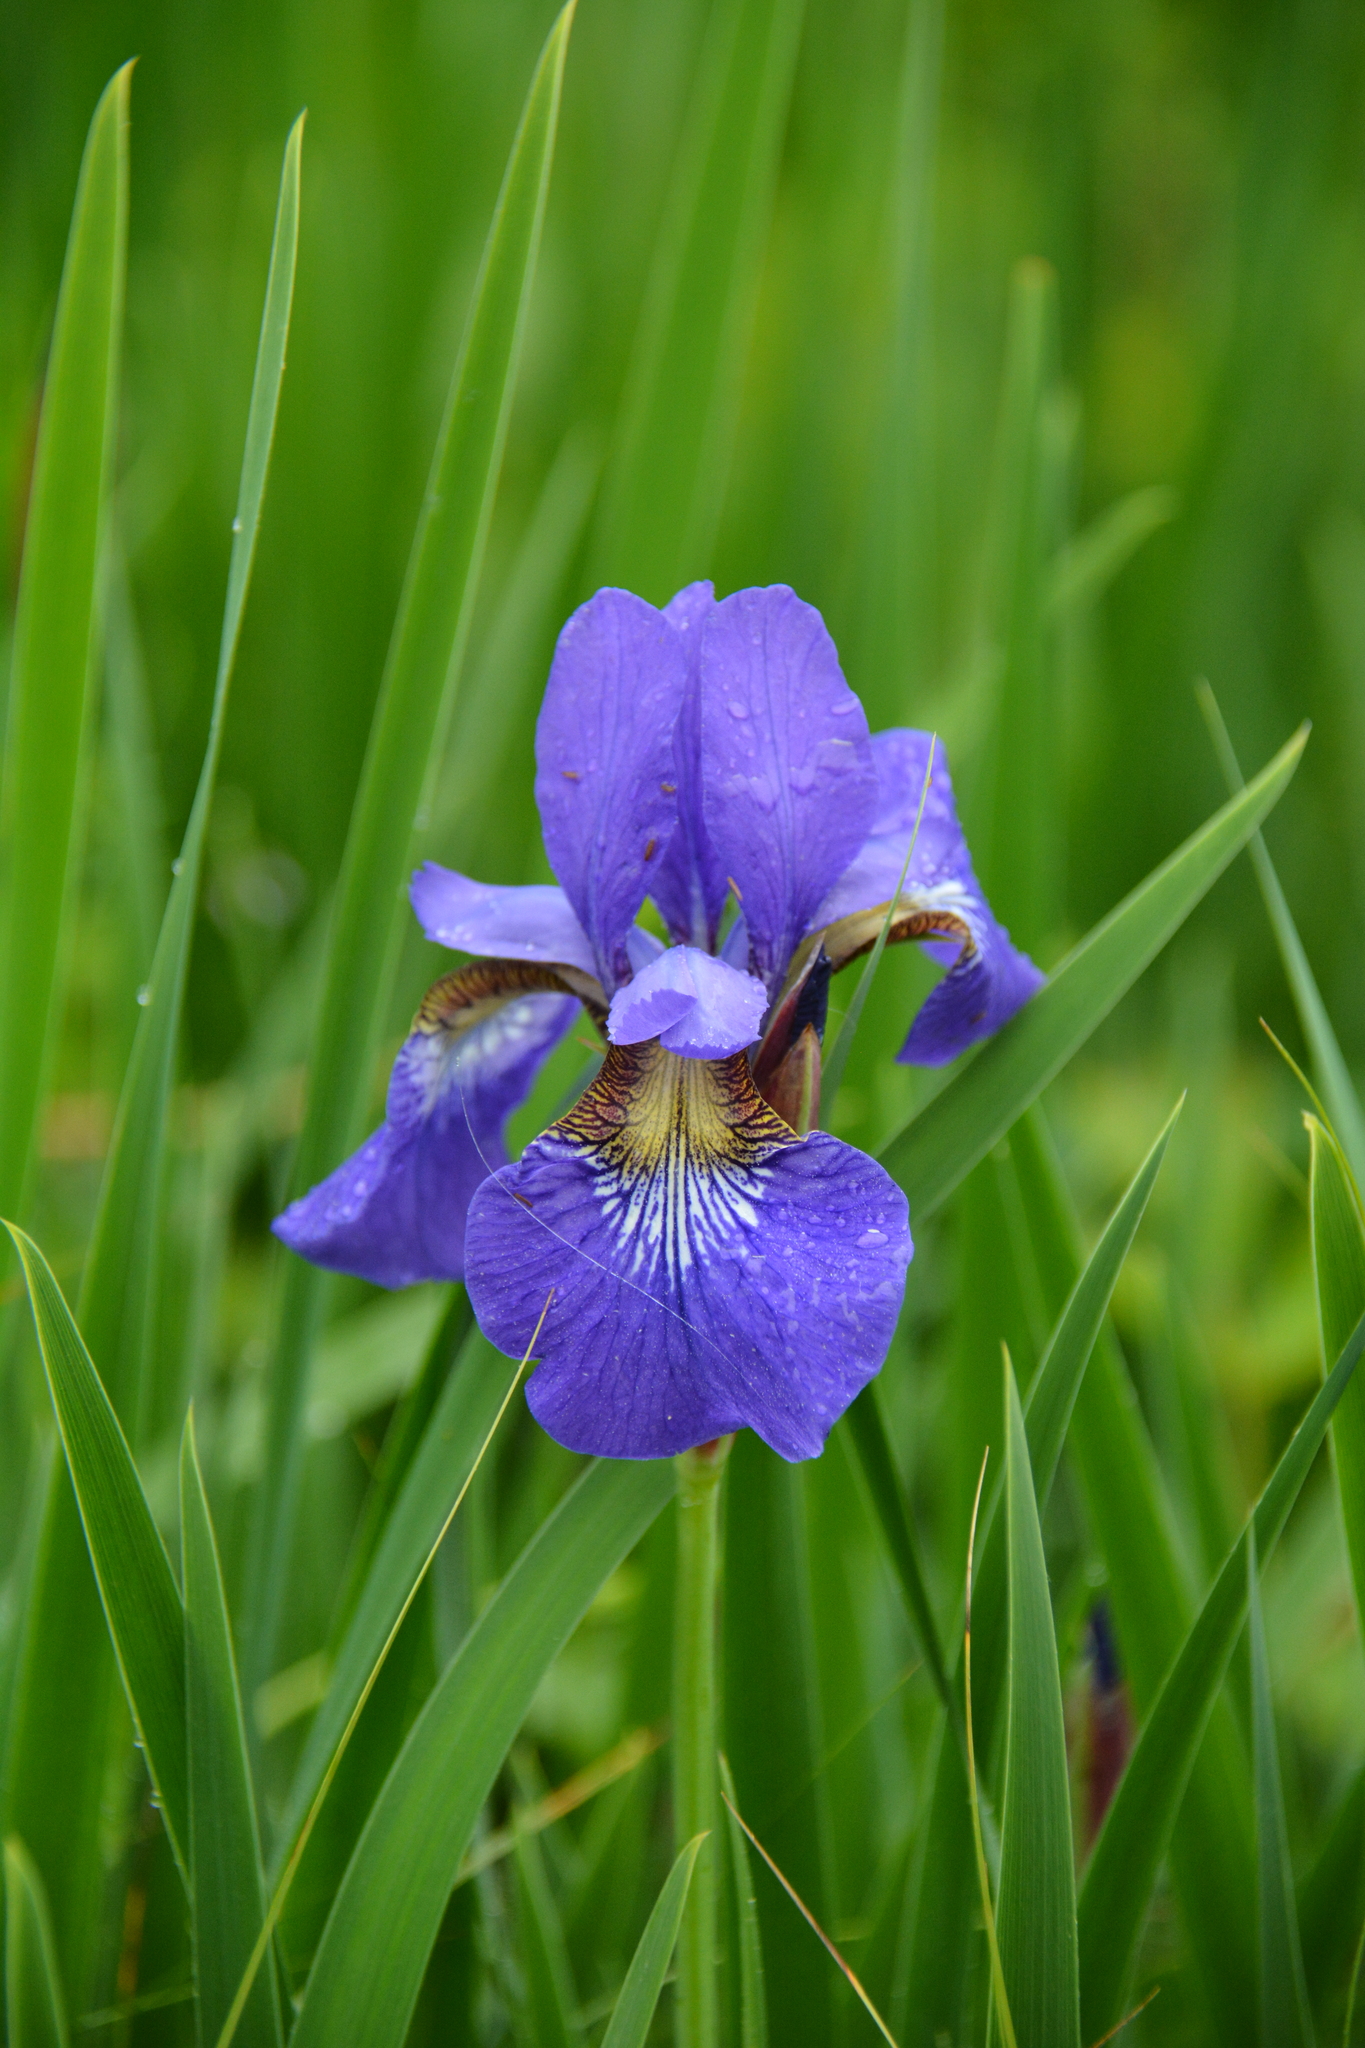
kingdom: Plantae
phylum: Tracheophyta
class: Liliopsida
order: Asparagales
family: Iridaceae
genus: Iris
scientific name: Iris sanguinea
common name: Blood iris
